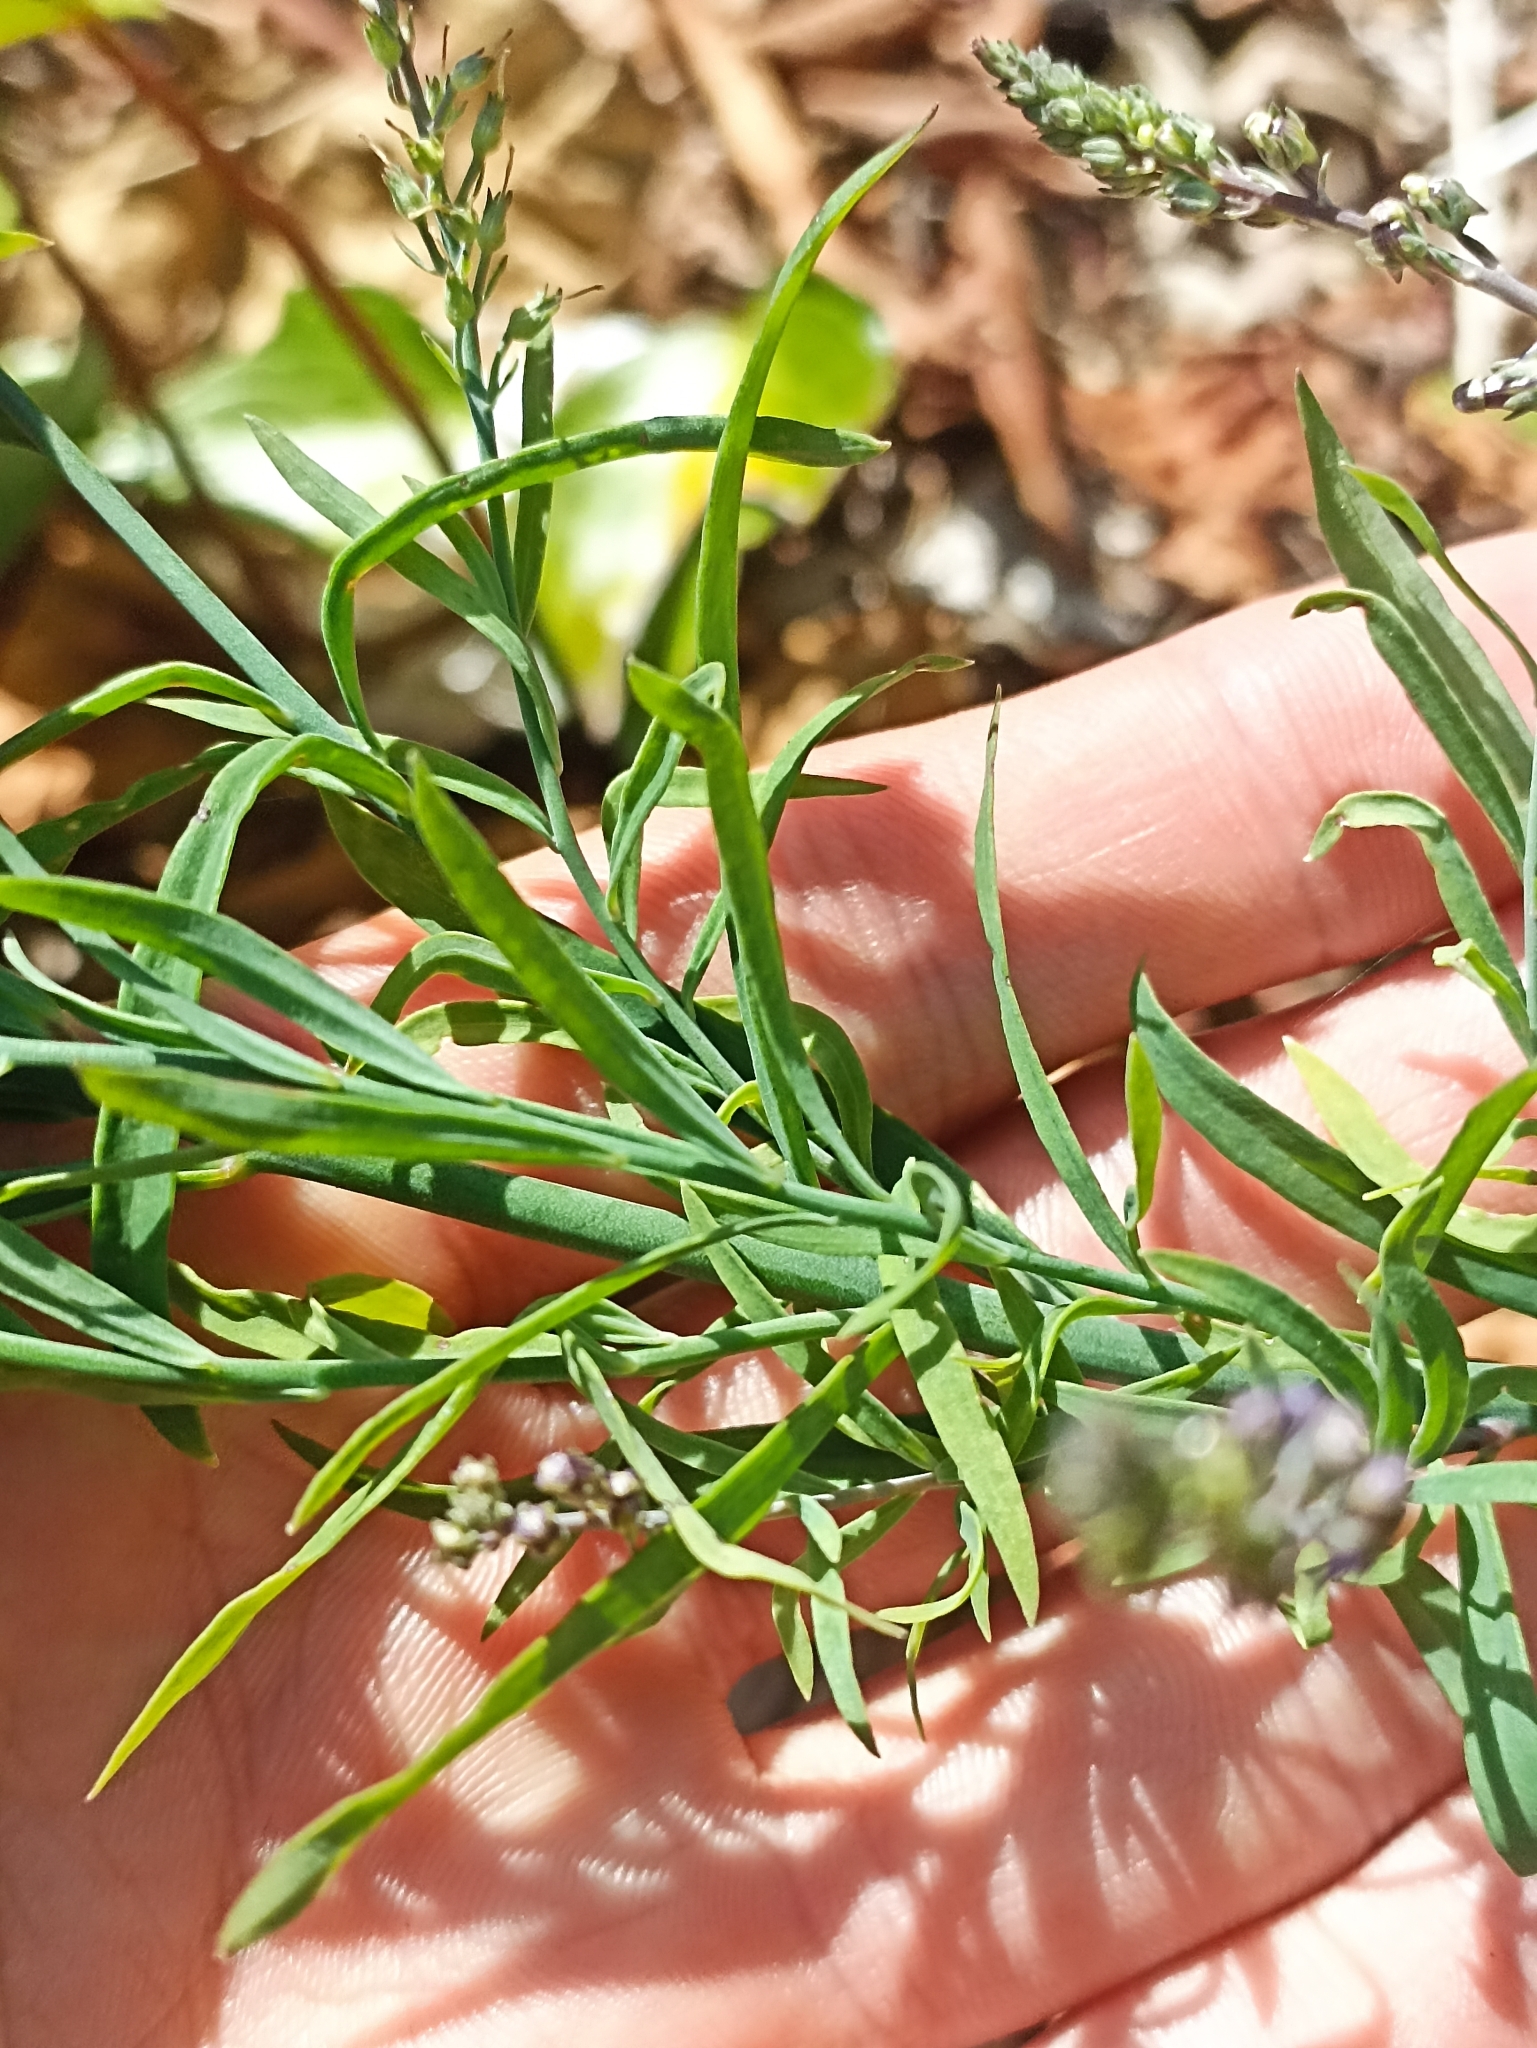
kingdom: Plantae
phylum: Tracheophyta
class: Magnoliopsida
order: Lamiales
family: Plantaginaceae
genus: Linaria
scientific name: Linaria purpurea
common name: Purple toadflax
